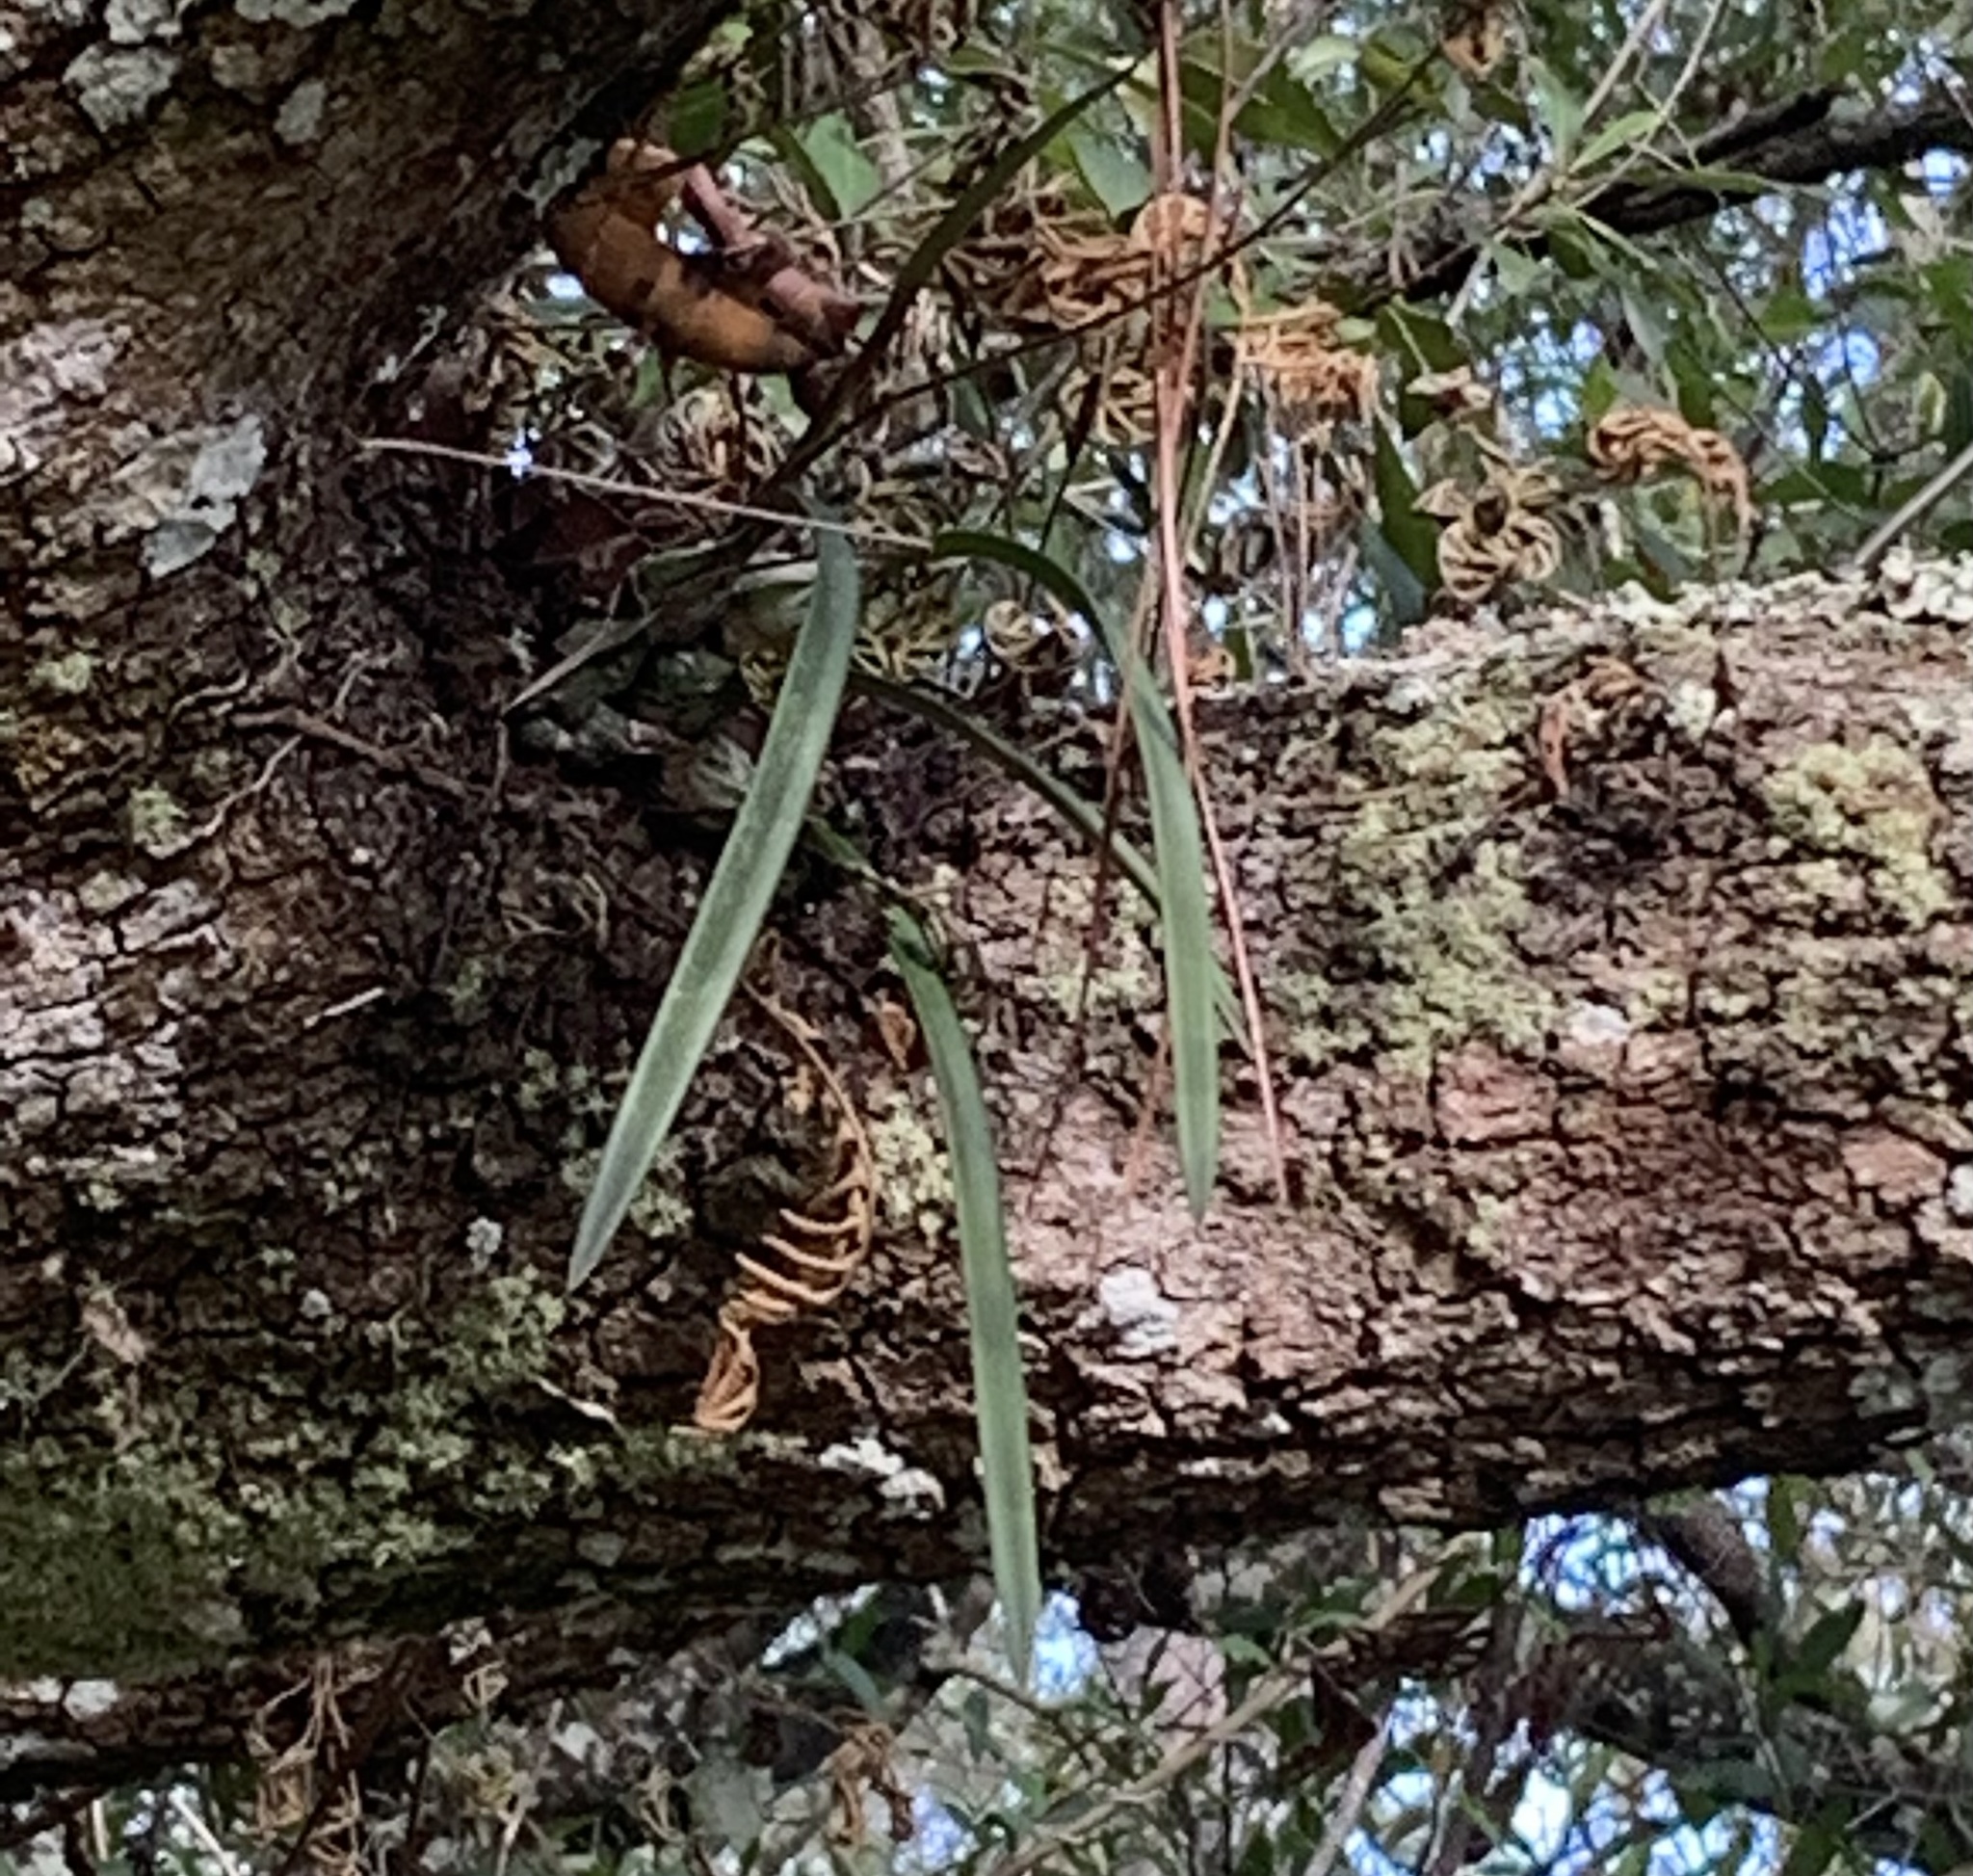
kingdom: Plantae
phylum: Tracheophyta
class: Liliopsida
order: Asparagales
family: Orchidaceae
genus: Encyclia
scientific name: Encyclia tampensis
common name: Florida butterfly orchid
